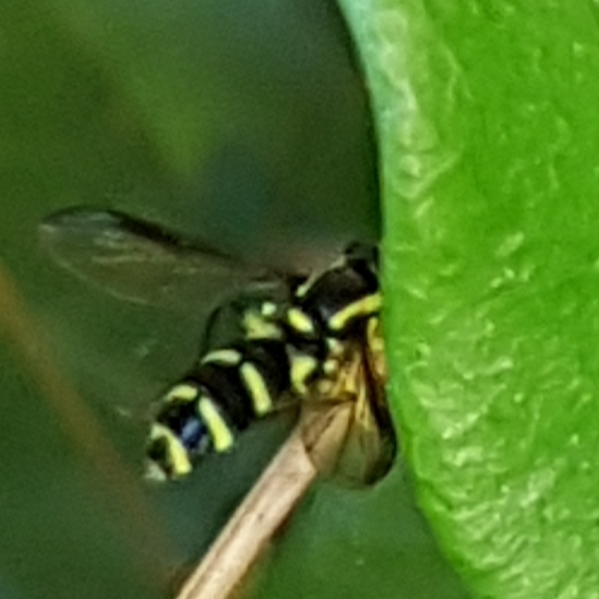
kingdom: Animalia
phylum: Arthropoda
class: Insecta
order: Diptera
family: Syrphidae
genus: Philhelius
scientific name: Philhelius dives
